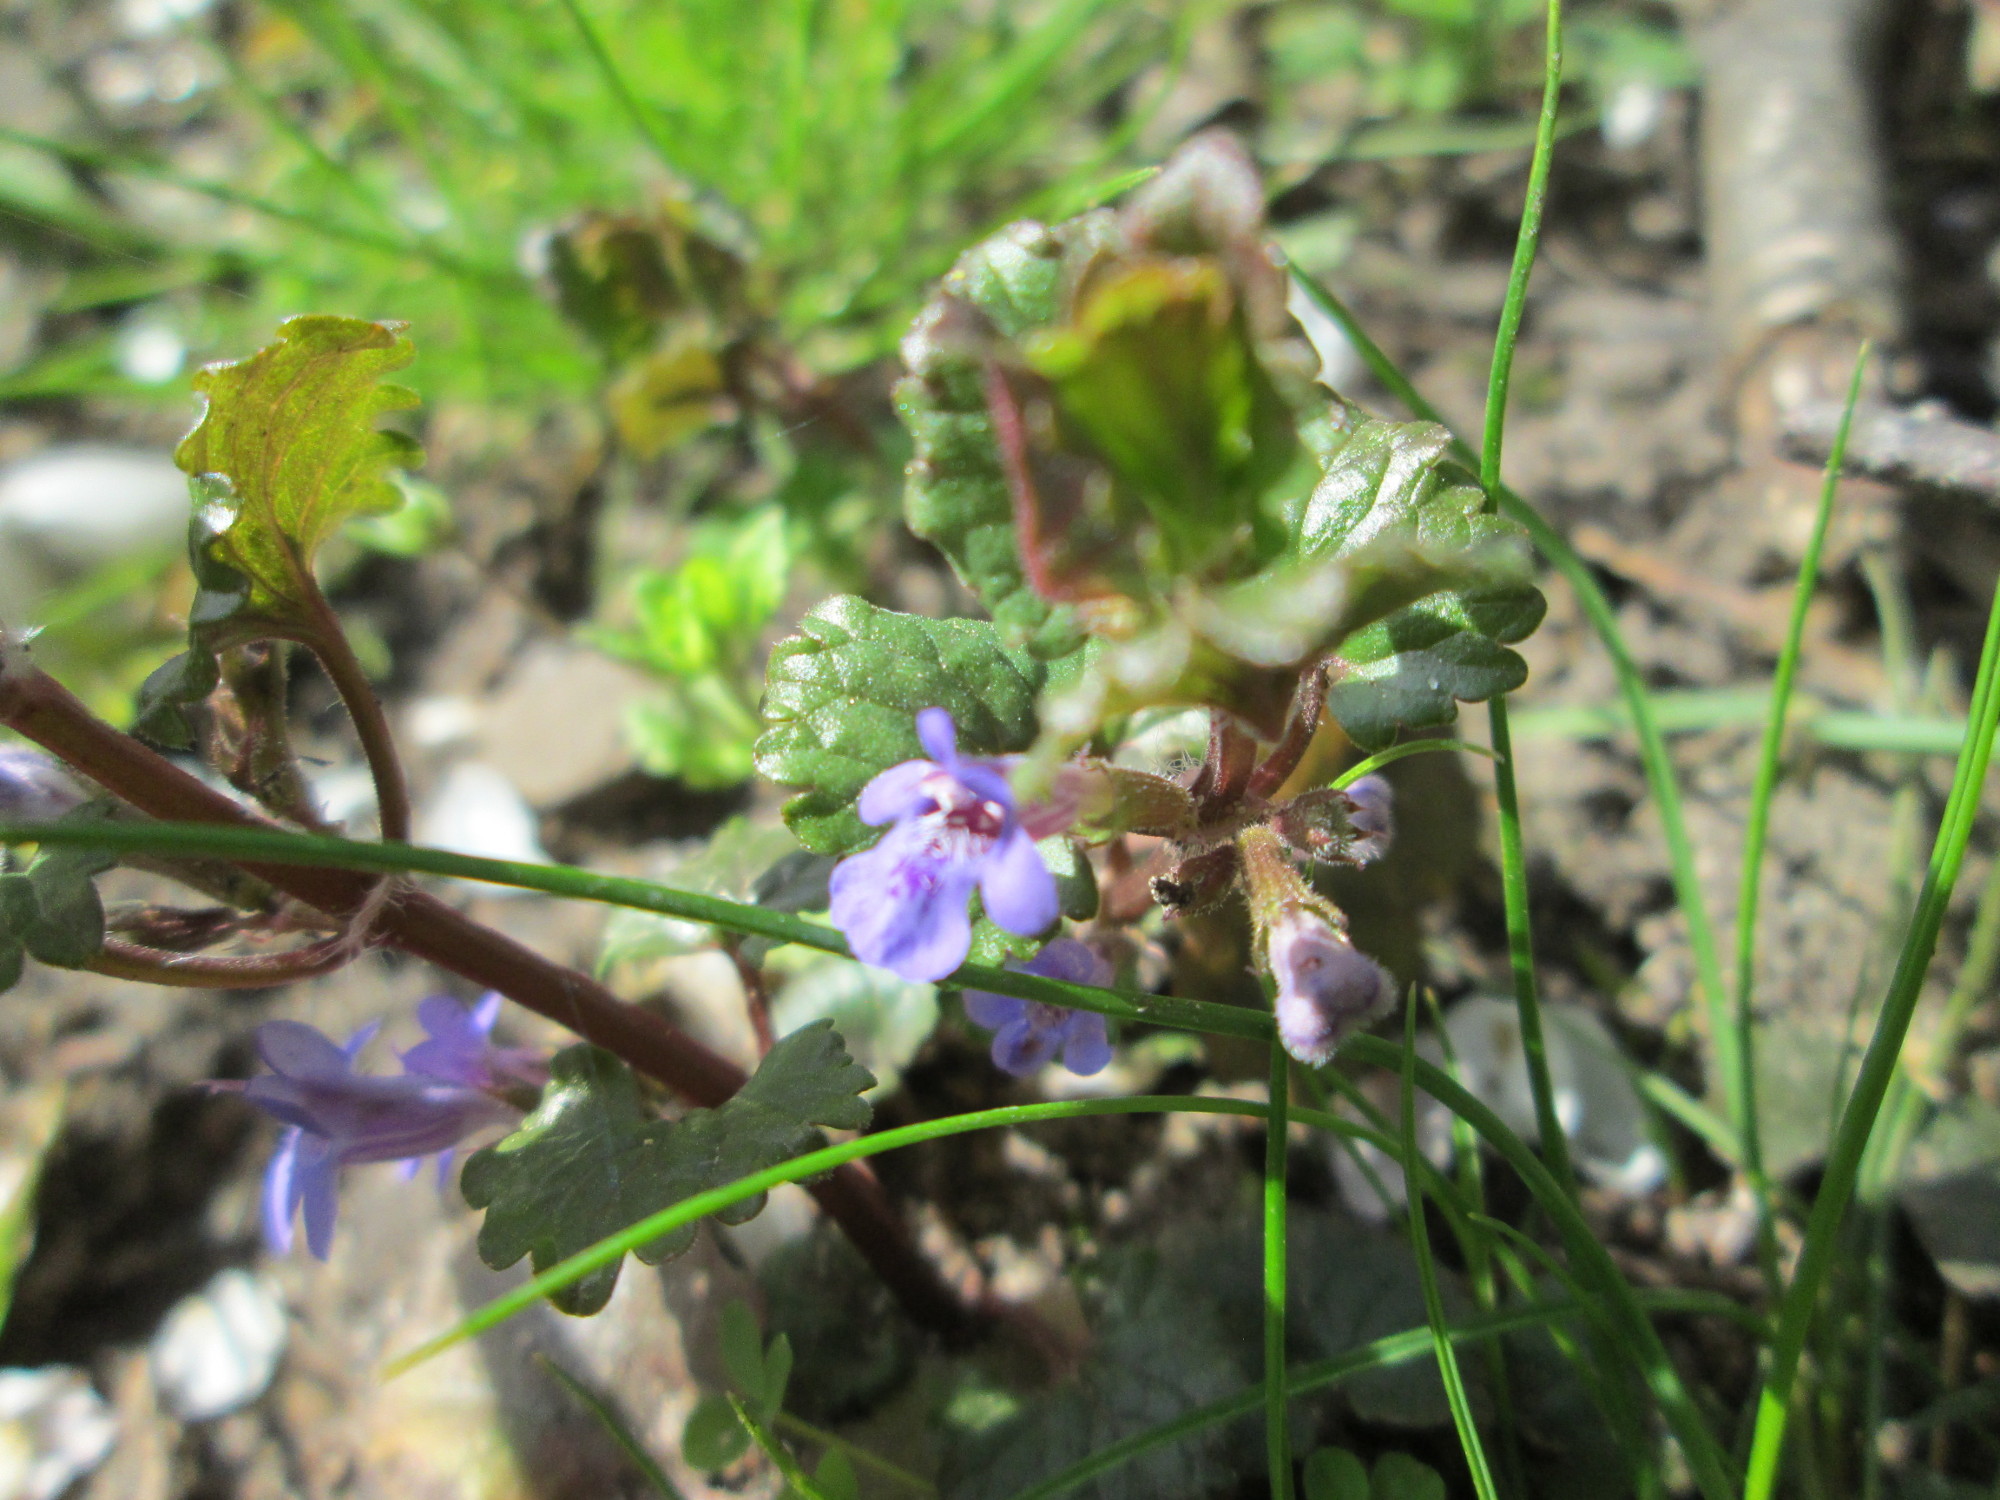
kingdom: Plantae
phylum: Tracheophyta
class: Magnoliopsida
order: Lamiales
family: Lamiaceae
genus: Glechoma
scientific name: Glechoma hederacea
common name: Ground ivy
